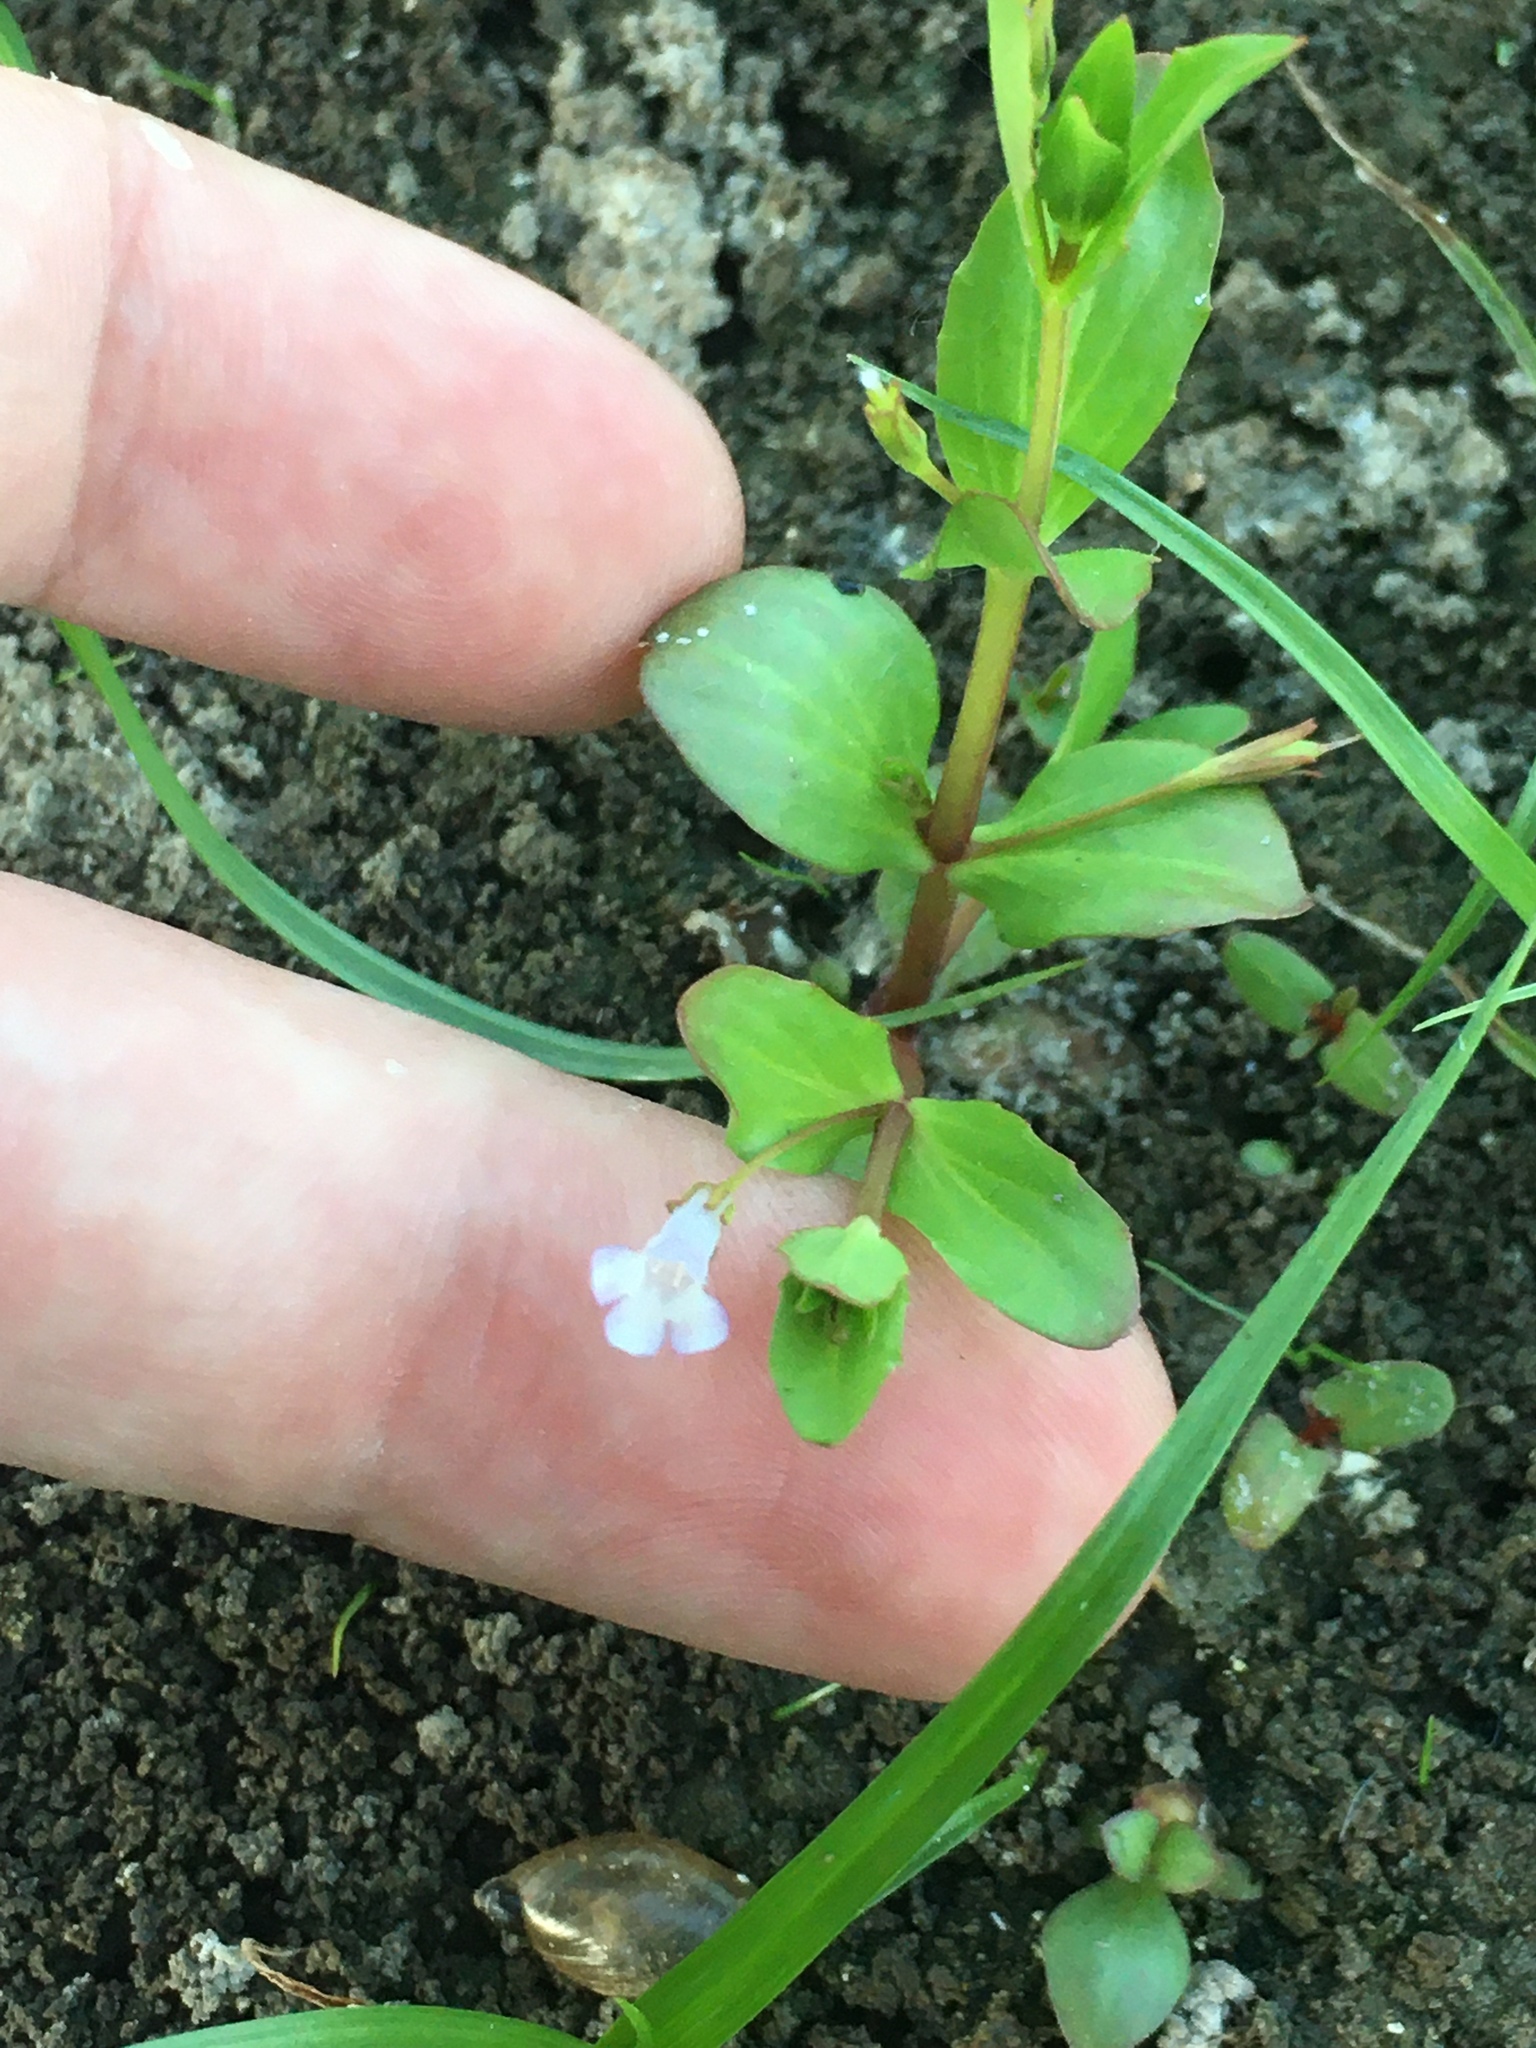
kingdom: Plantae
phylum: Tracheophyta
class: Magnoliopsida
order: Lamiales
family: Linderniaceae
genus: Lindernia
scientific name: Lindernia dubia
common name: Annual false pimpernel
